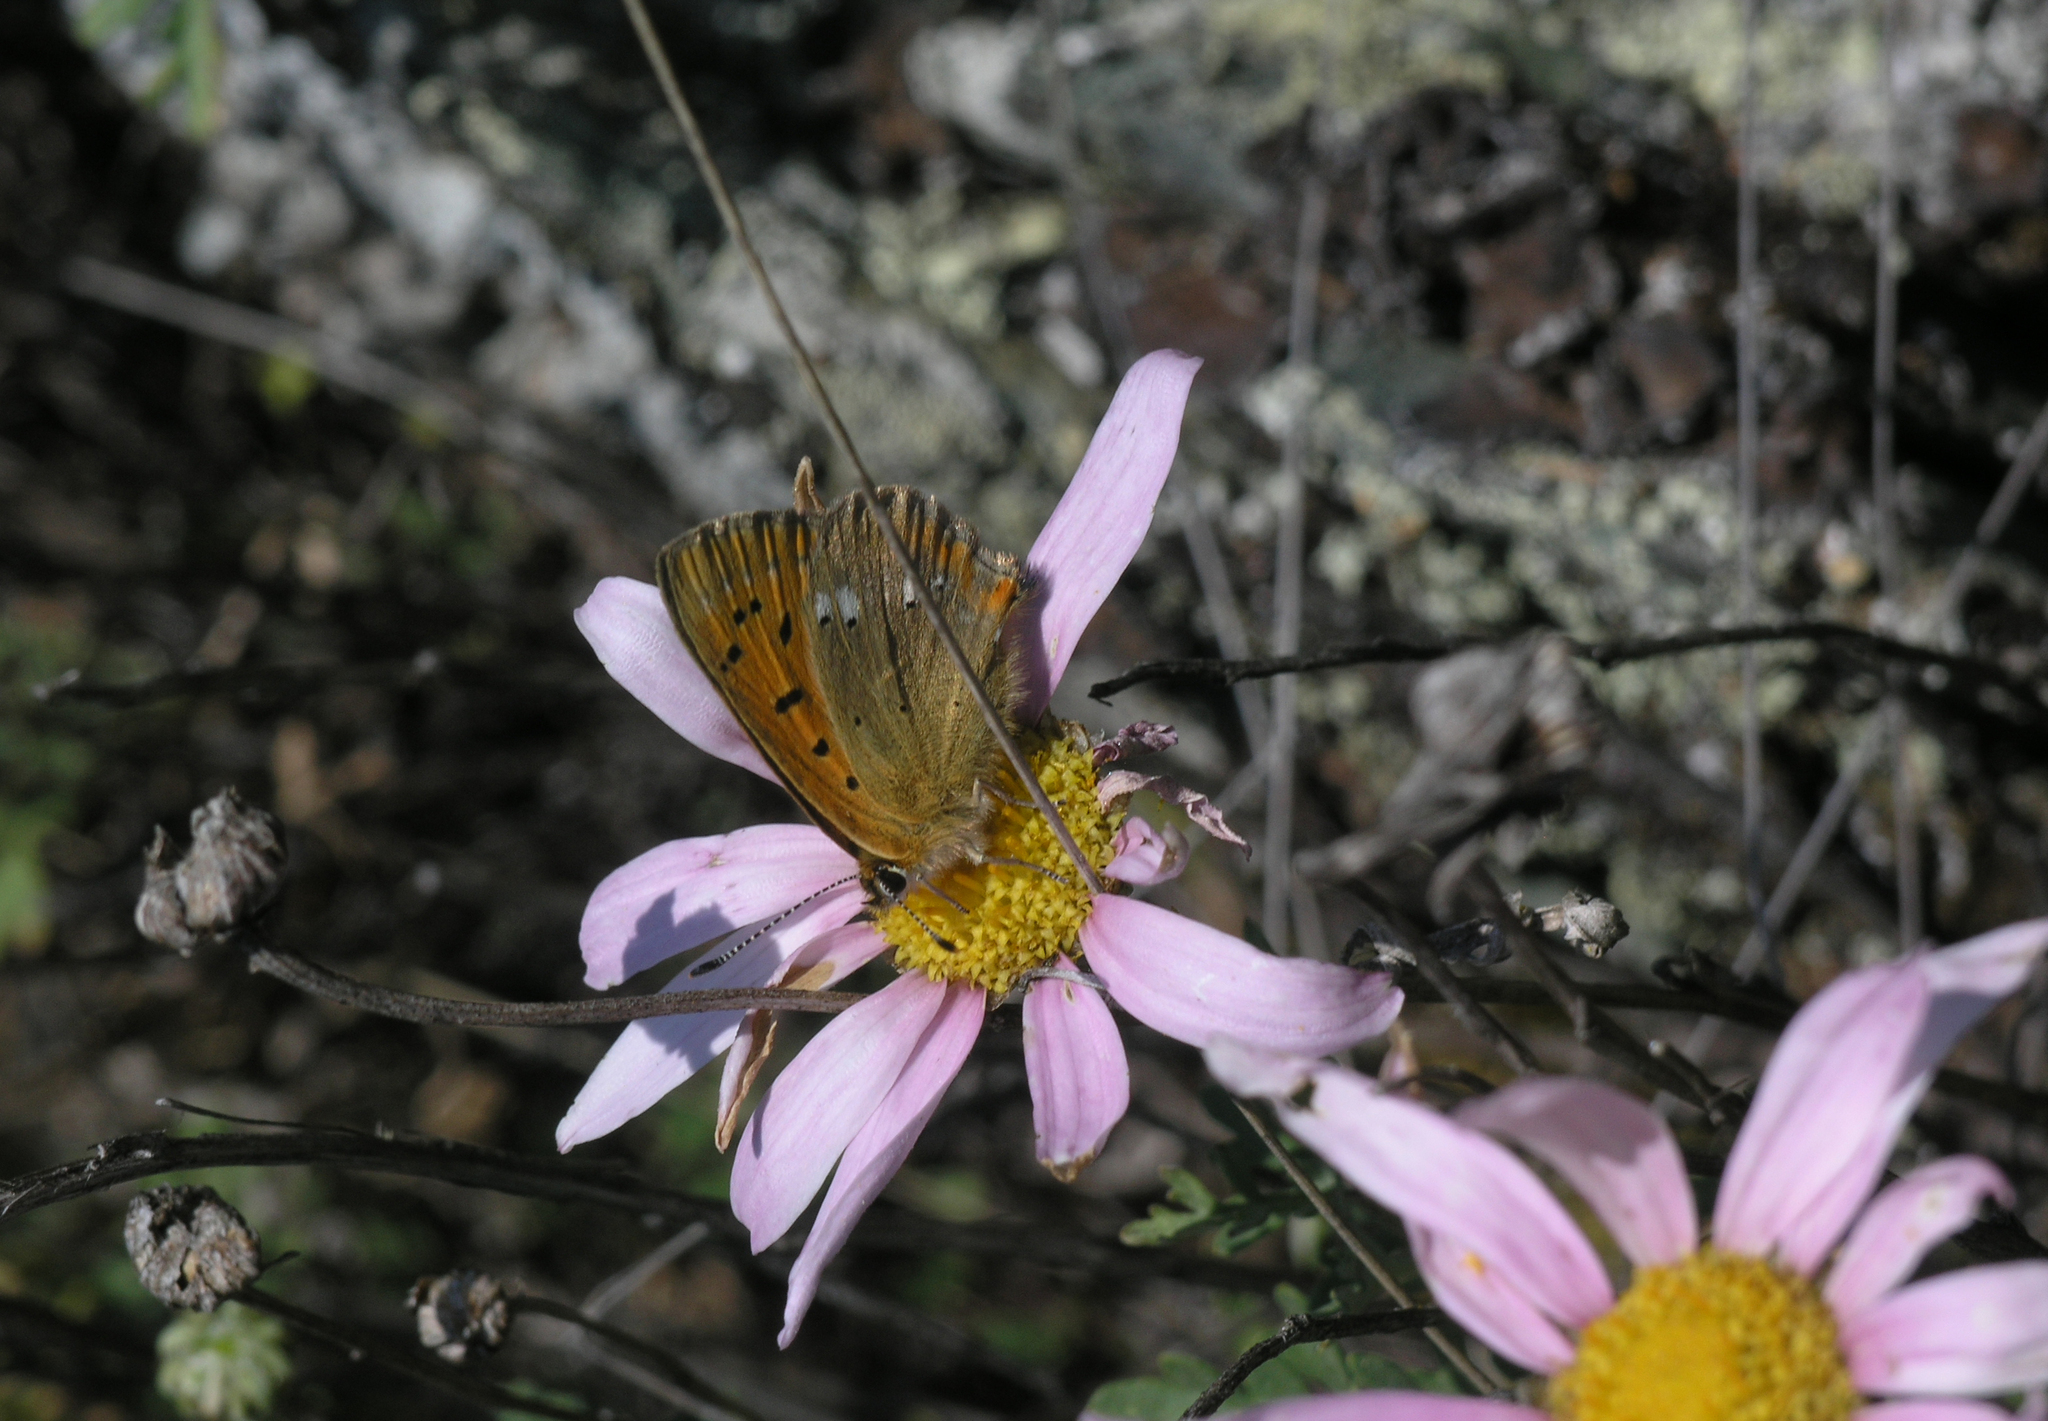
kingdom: Animalia
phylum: Arthropoda
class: Insecta
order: Lepidoptera
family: Lycaenidae
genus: Lycaena
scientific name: Lycaena virgaureae
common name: Scarce copper
